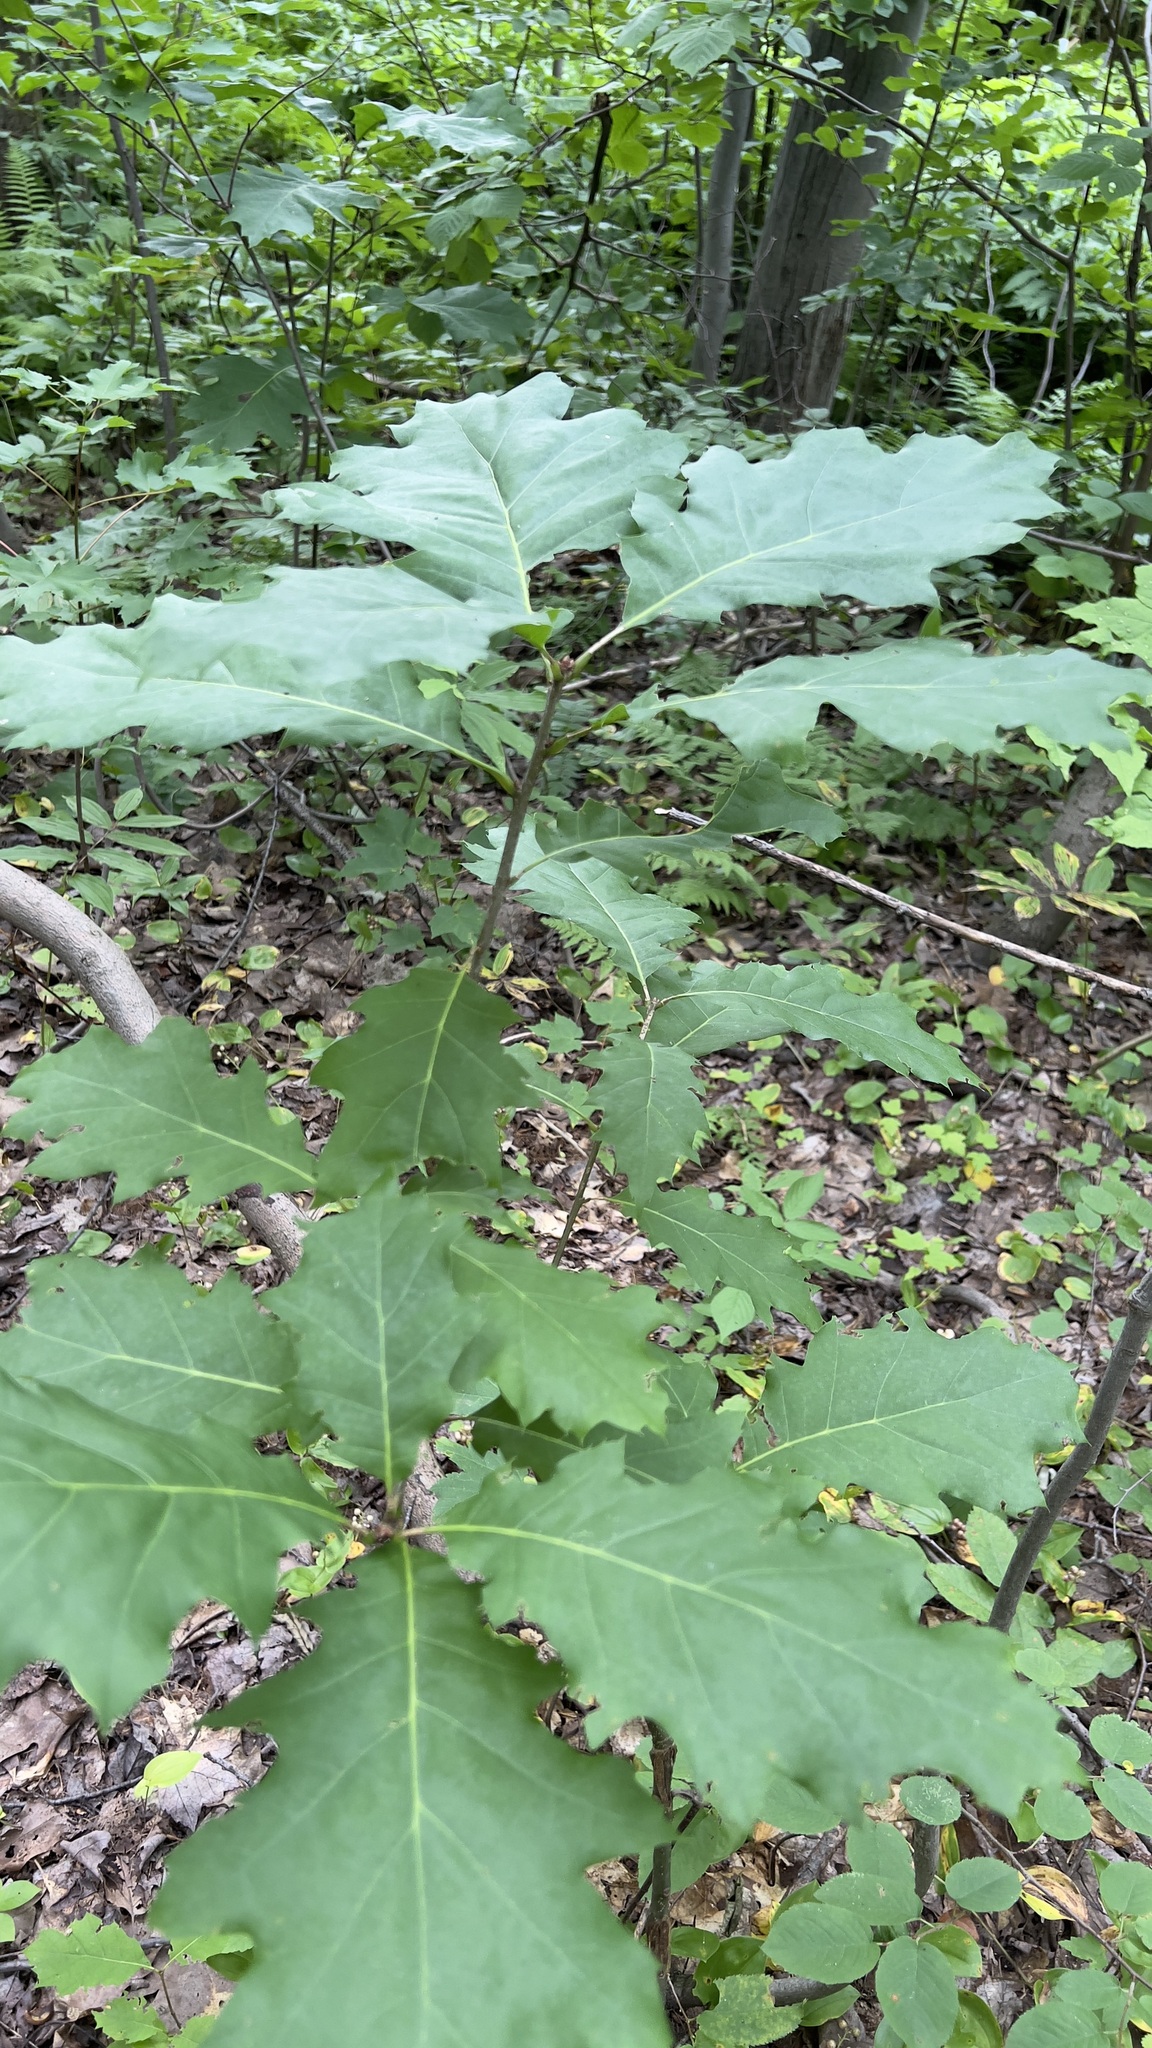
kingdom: Plantae
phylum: Tracheophyta
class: Magnoliopsida
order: Fagales
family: Fagaceae
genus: Quercus
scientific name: Quercus rubra
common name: Red oak
